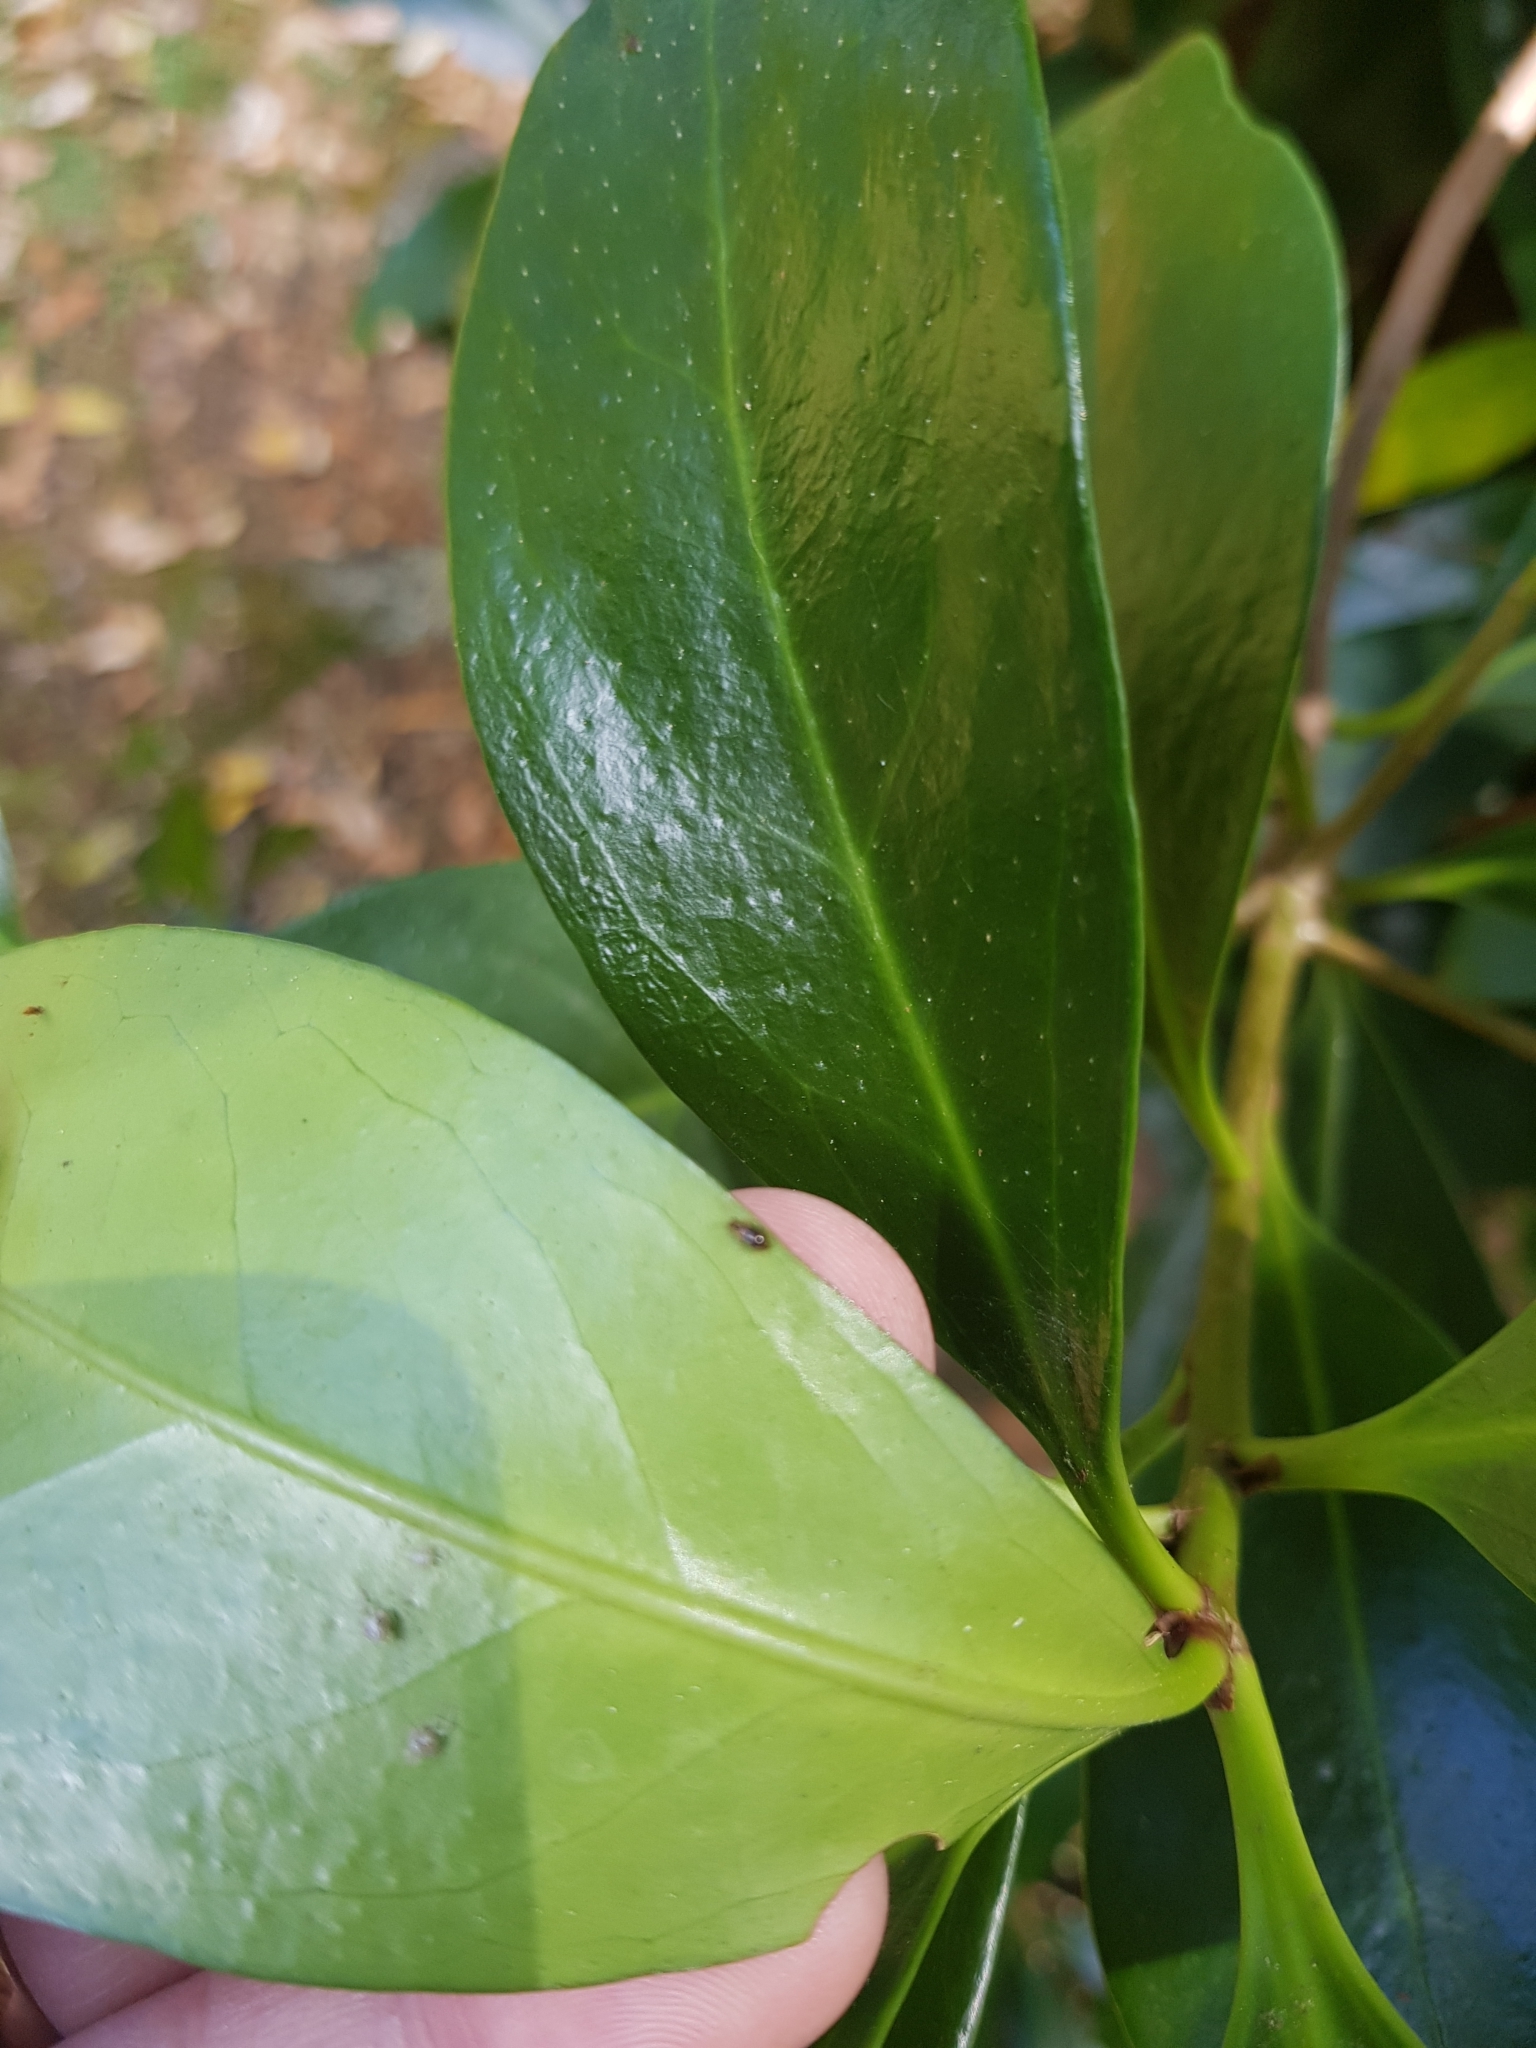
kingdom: Animalia
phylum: Arthropoda
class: Insecta
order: Coleoptera
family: Aderidae
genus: Zenascus
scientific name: Zenascus coloratus
